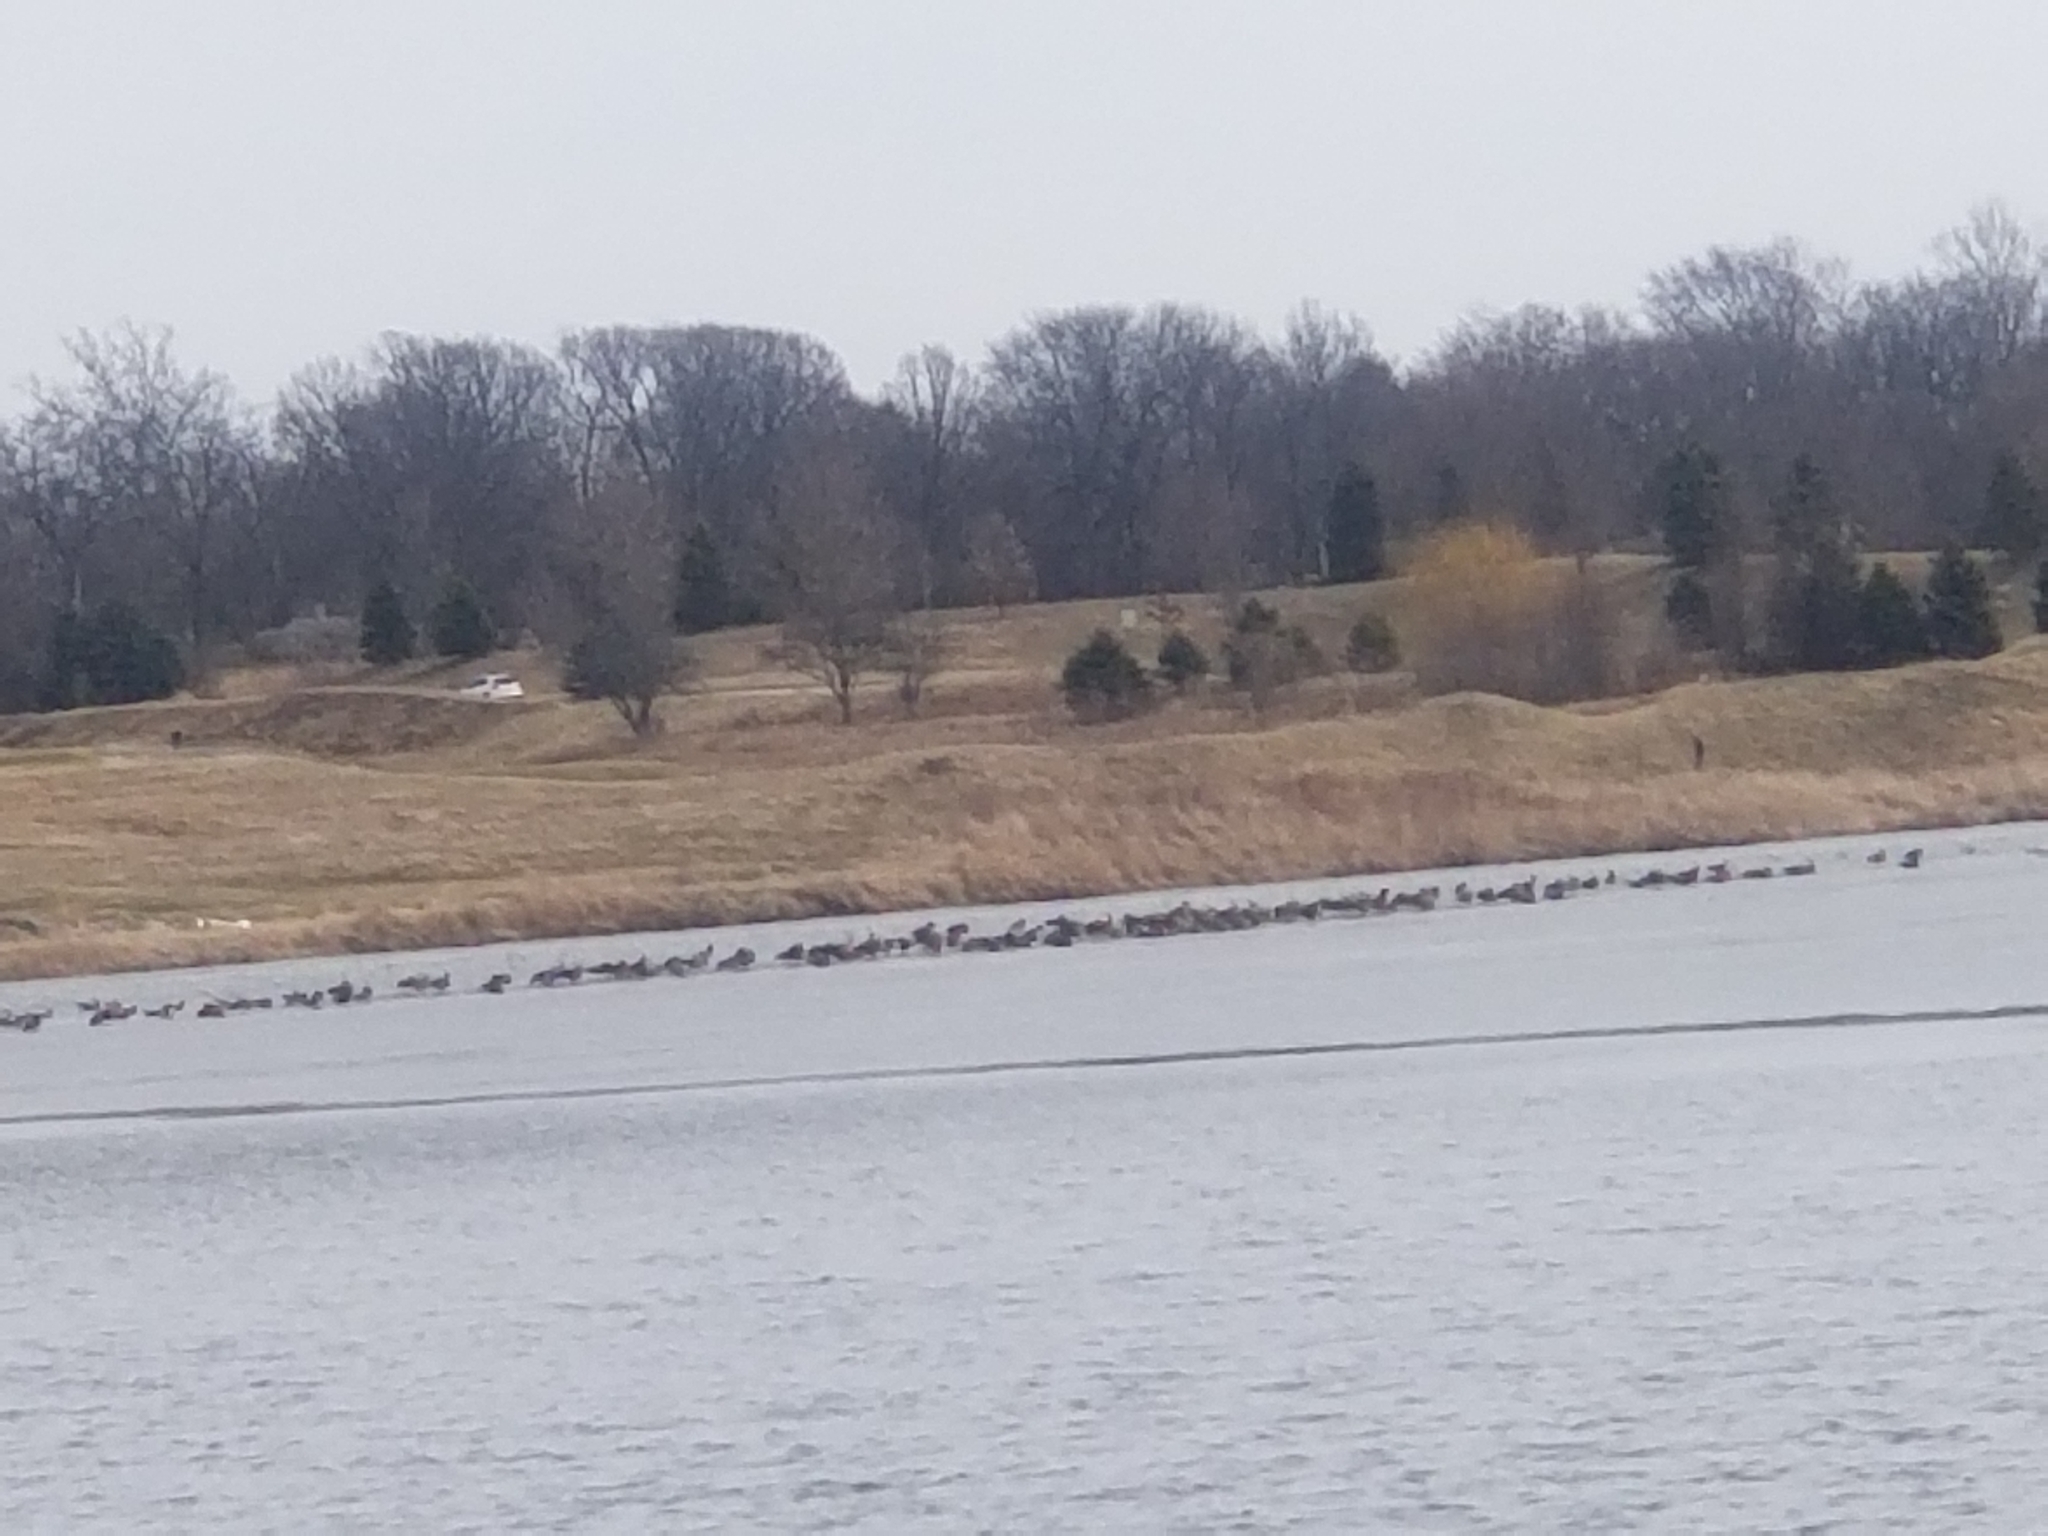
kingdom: Animalia
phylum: Chordata
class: Aves
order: Anseriformes
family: Anatidae
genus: Anser
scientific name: Anser albifrons
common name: Greater white-fronted goose
